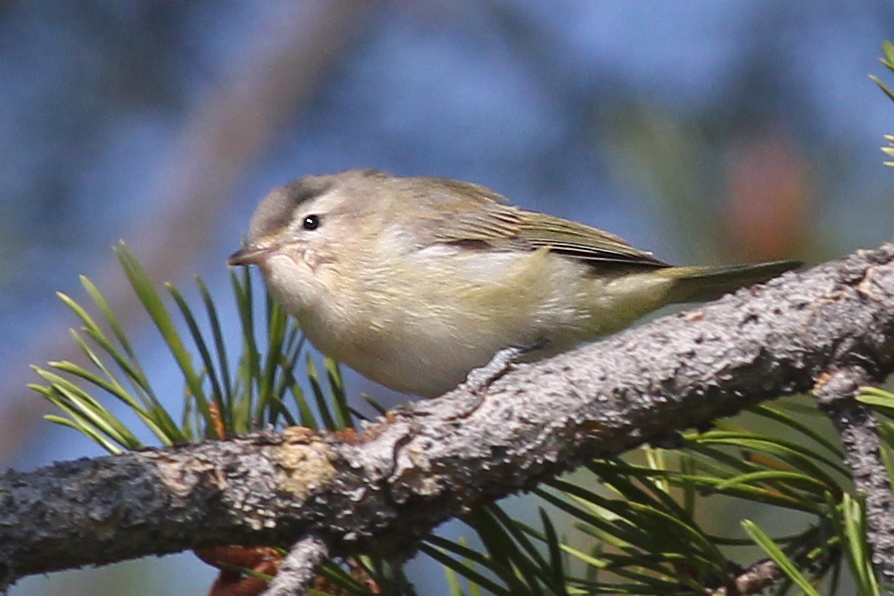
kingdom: Animalia
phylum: Chordata
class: Aves
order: Passeriformes
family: Vireonidae
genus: Vireo
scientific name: Vireo gilvus
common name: Warbling vireo
